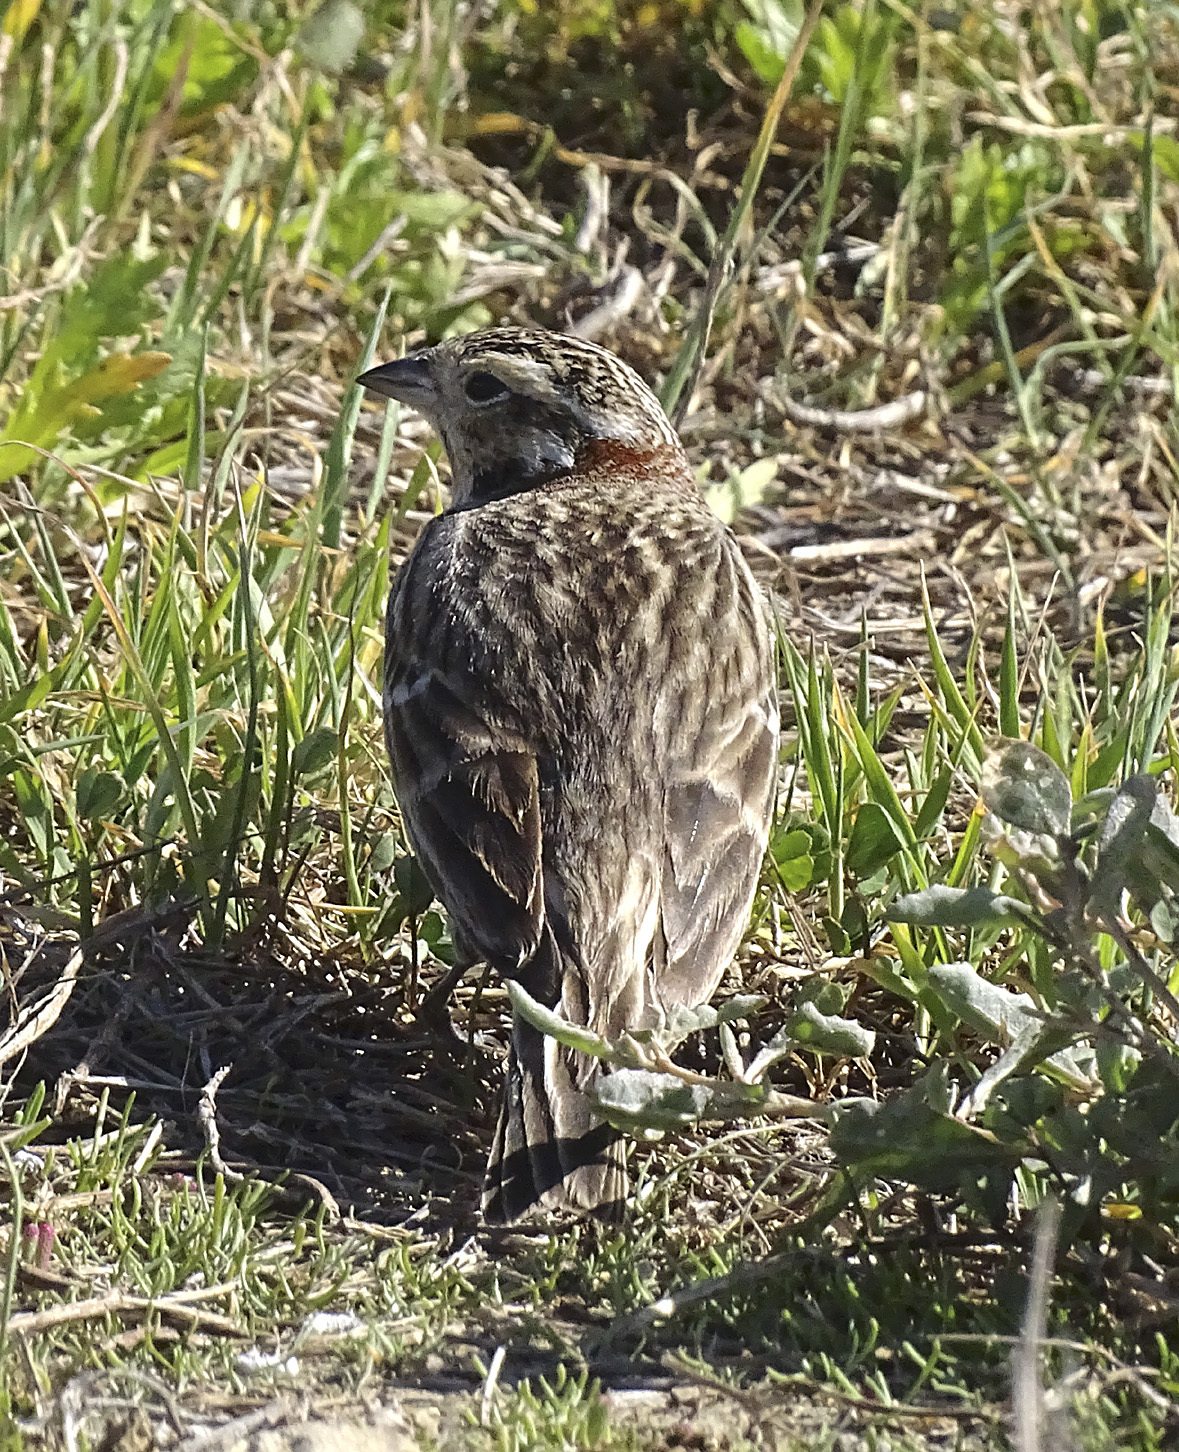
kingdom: Animalia
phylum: Chordata
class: Aves
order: Passeriformes
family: Calcariidae
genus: Calcarius
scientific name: Calcarius ornatus
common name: Chestnut-collared longspur
